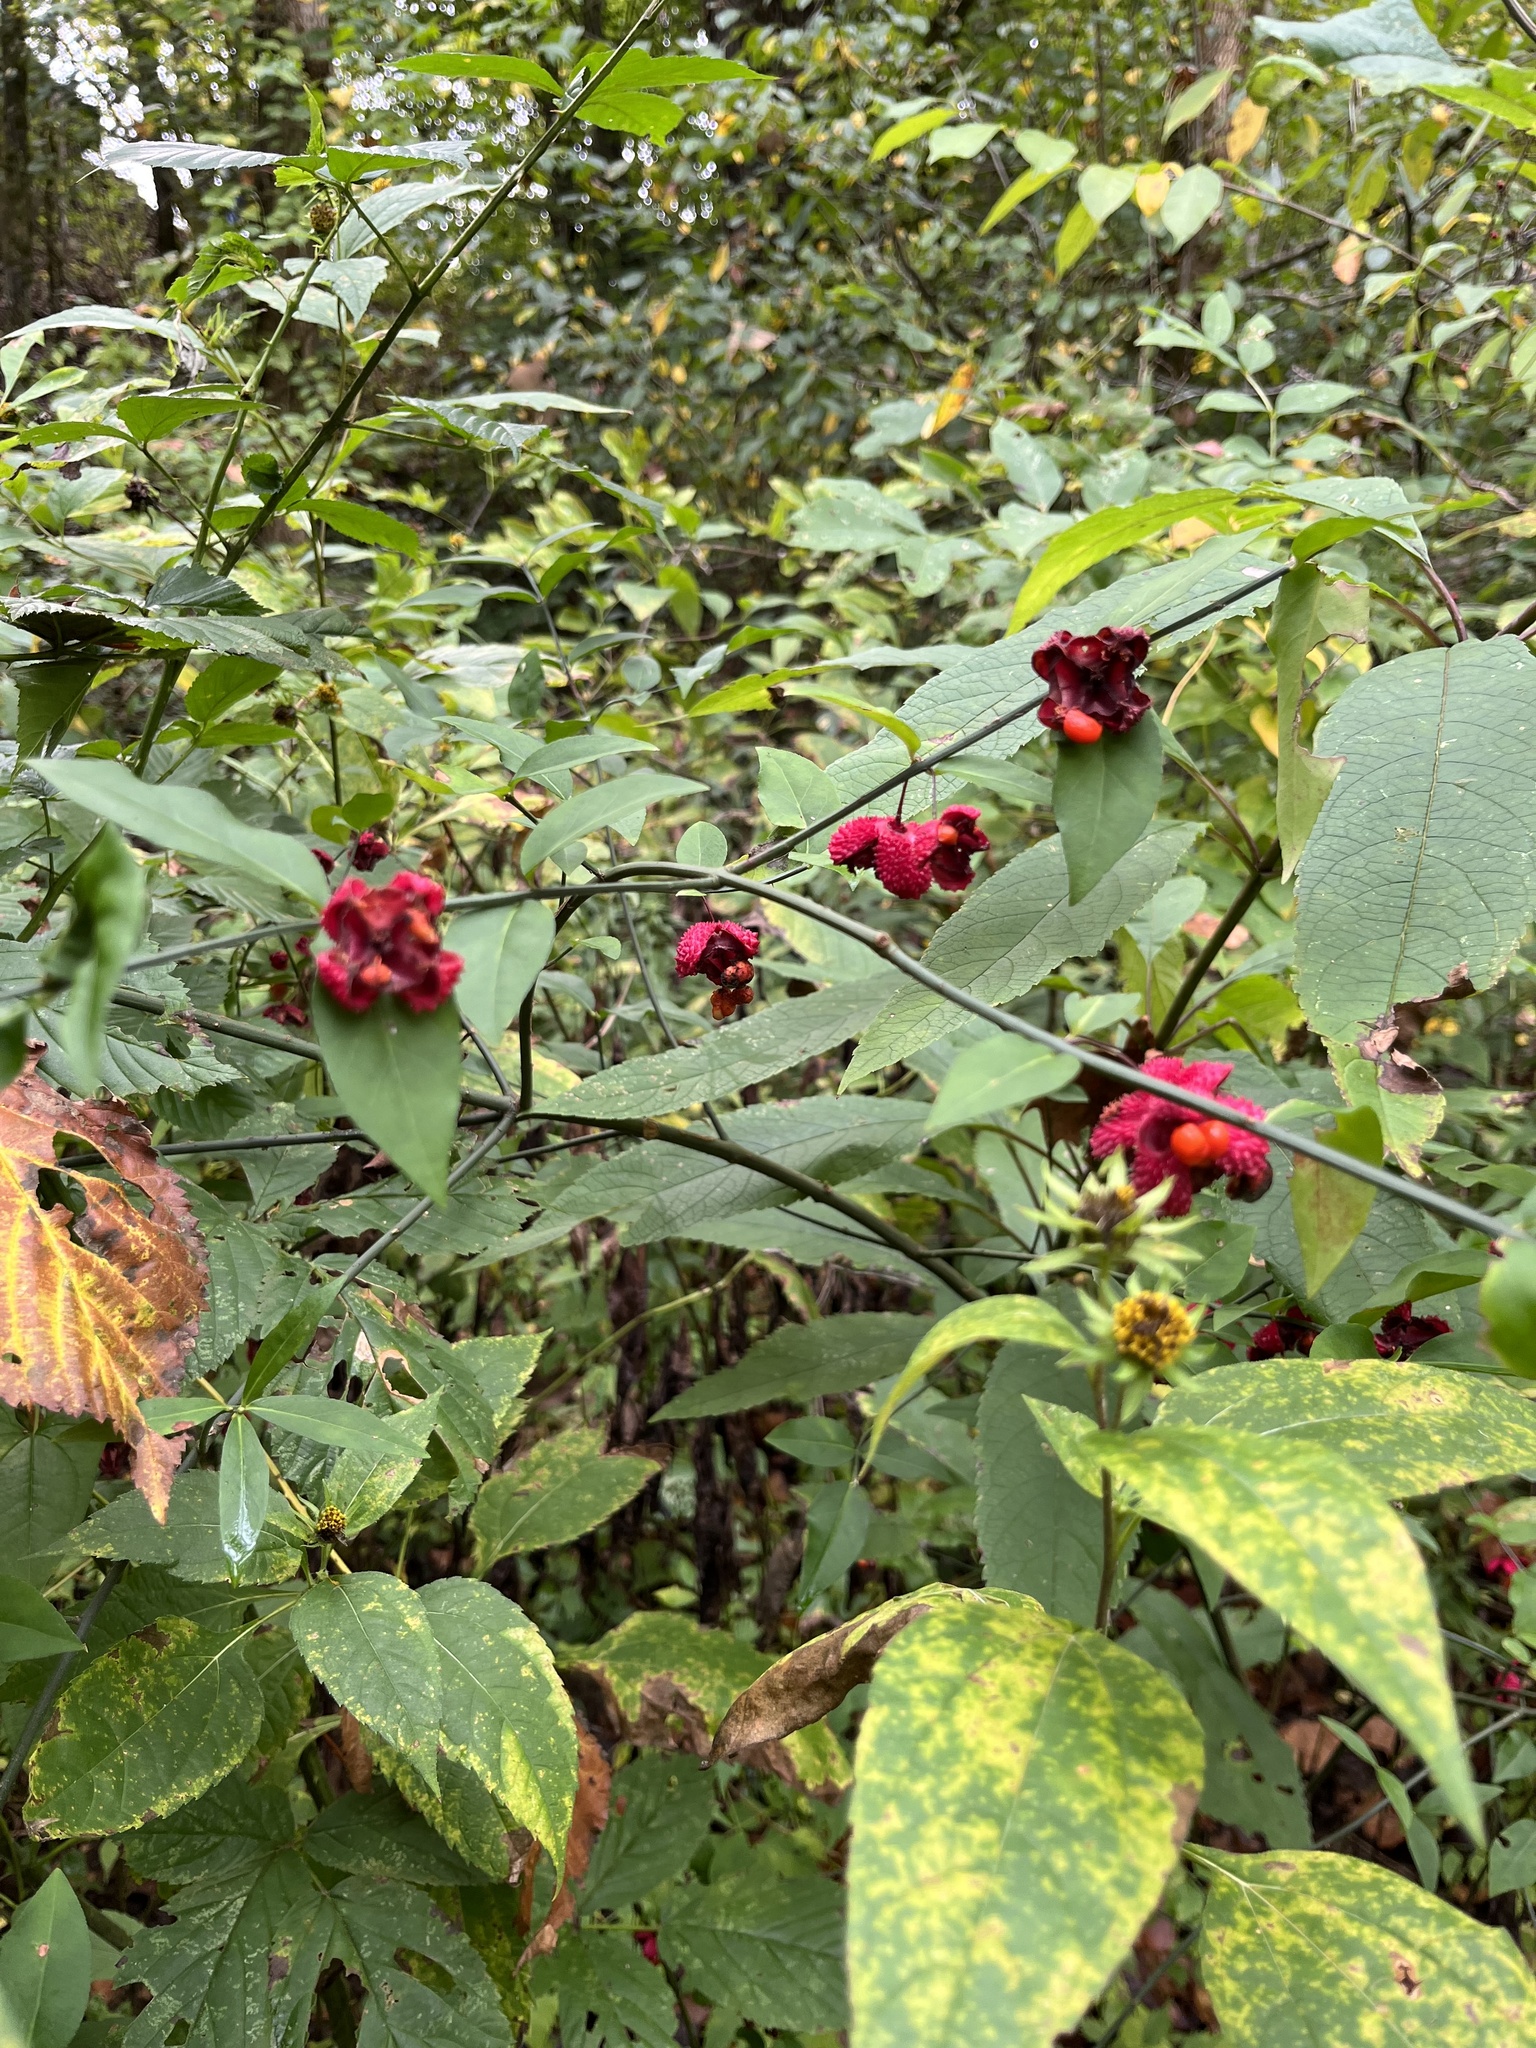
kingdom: Plantae
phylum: Tracheophyta
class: Magnoliopsida
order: Celastrales
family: Celastraceae
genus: Euonymus
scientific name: Euonymus americanus
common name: Bursting-heart
